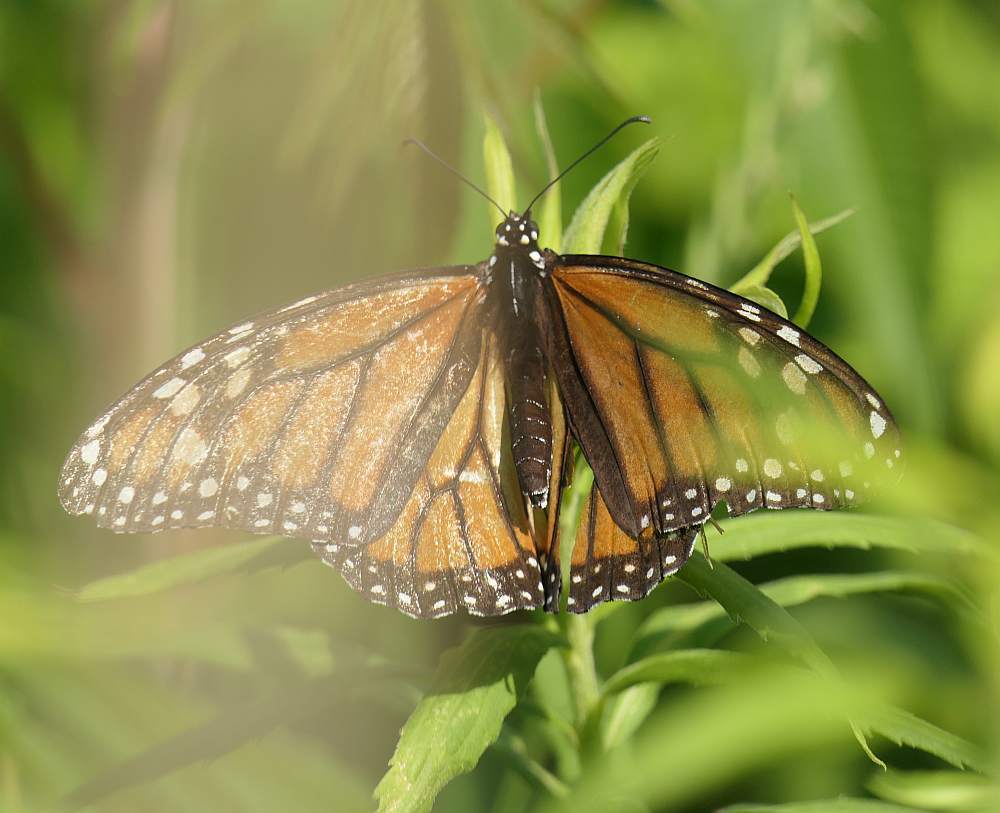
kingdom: Animalia
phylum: Arthropoda
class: Insecta
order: Lepidoptera
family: Nymphalidae
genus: Danaus
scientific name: Danaus plexippus
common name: Monarch
